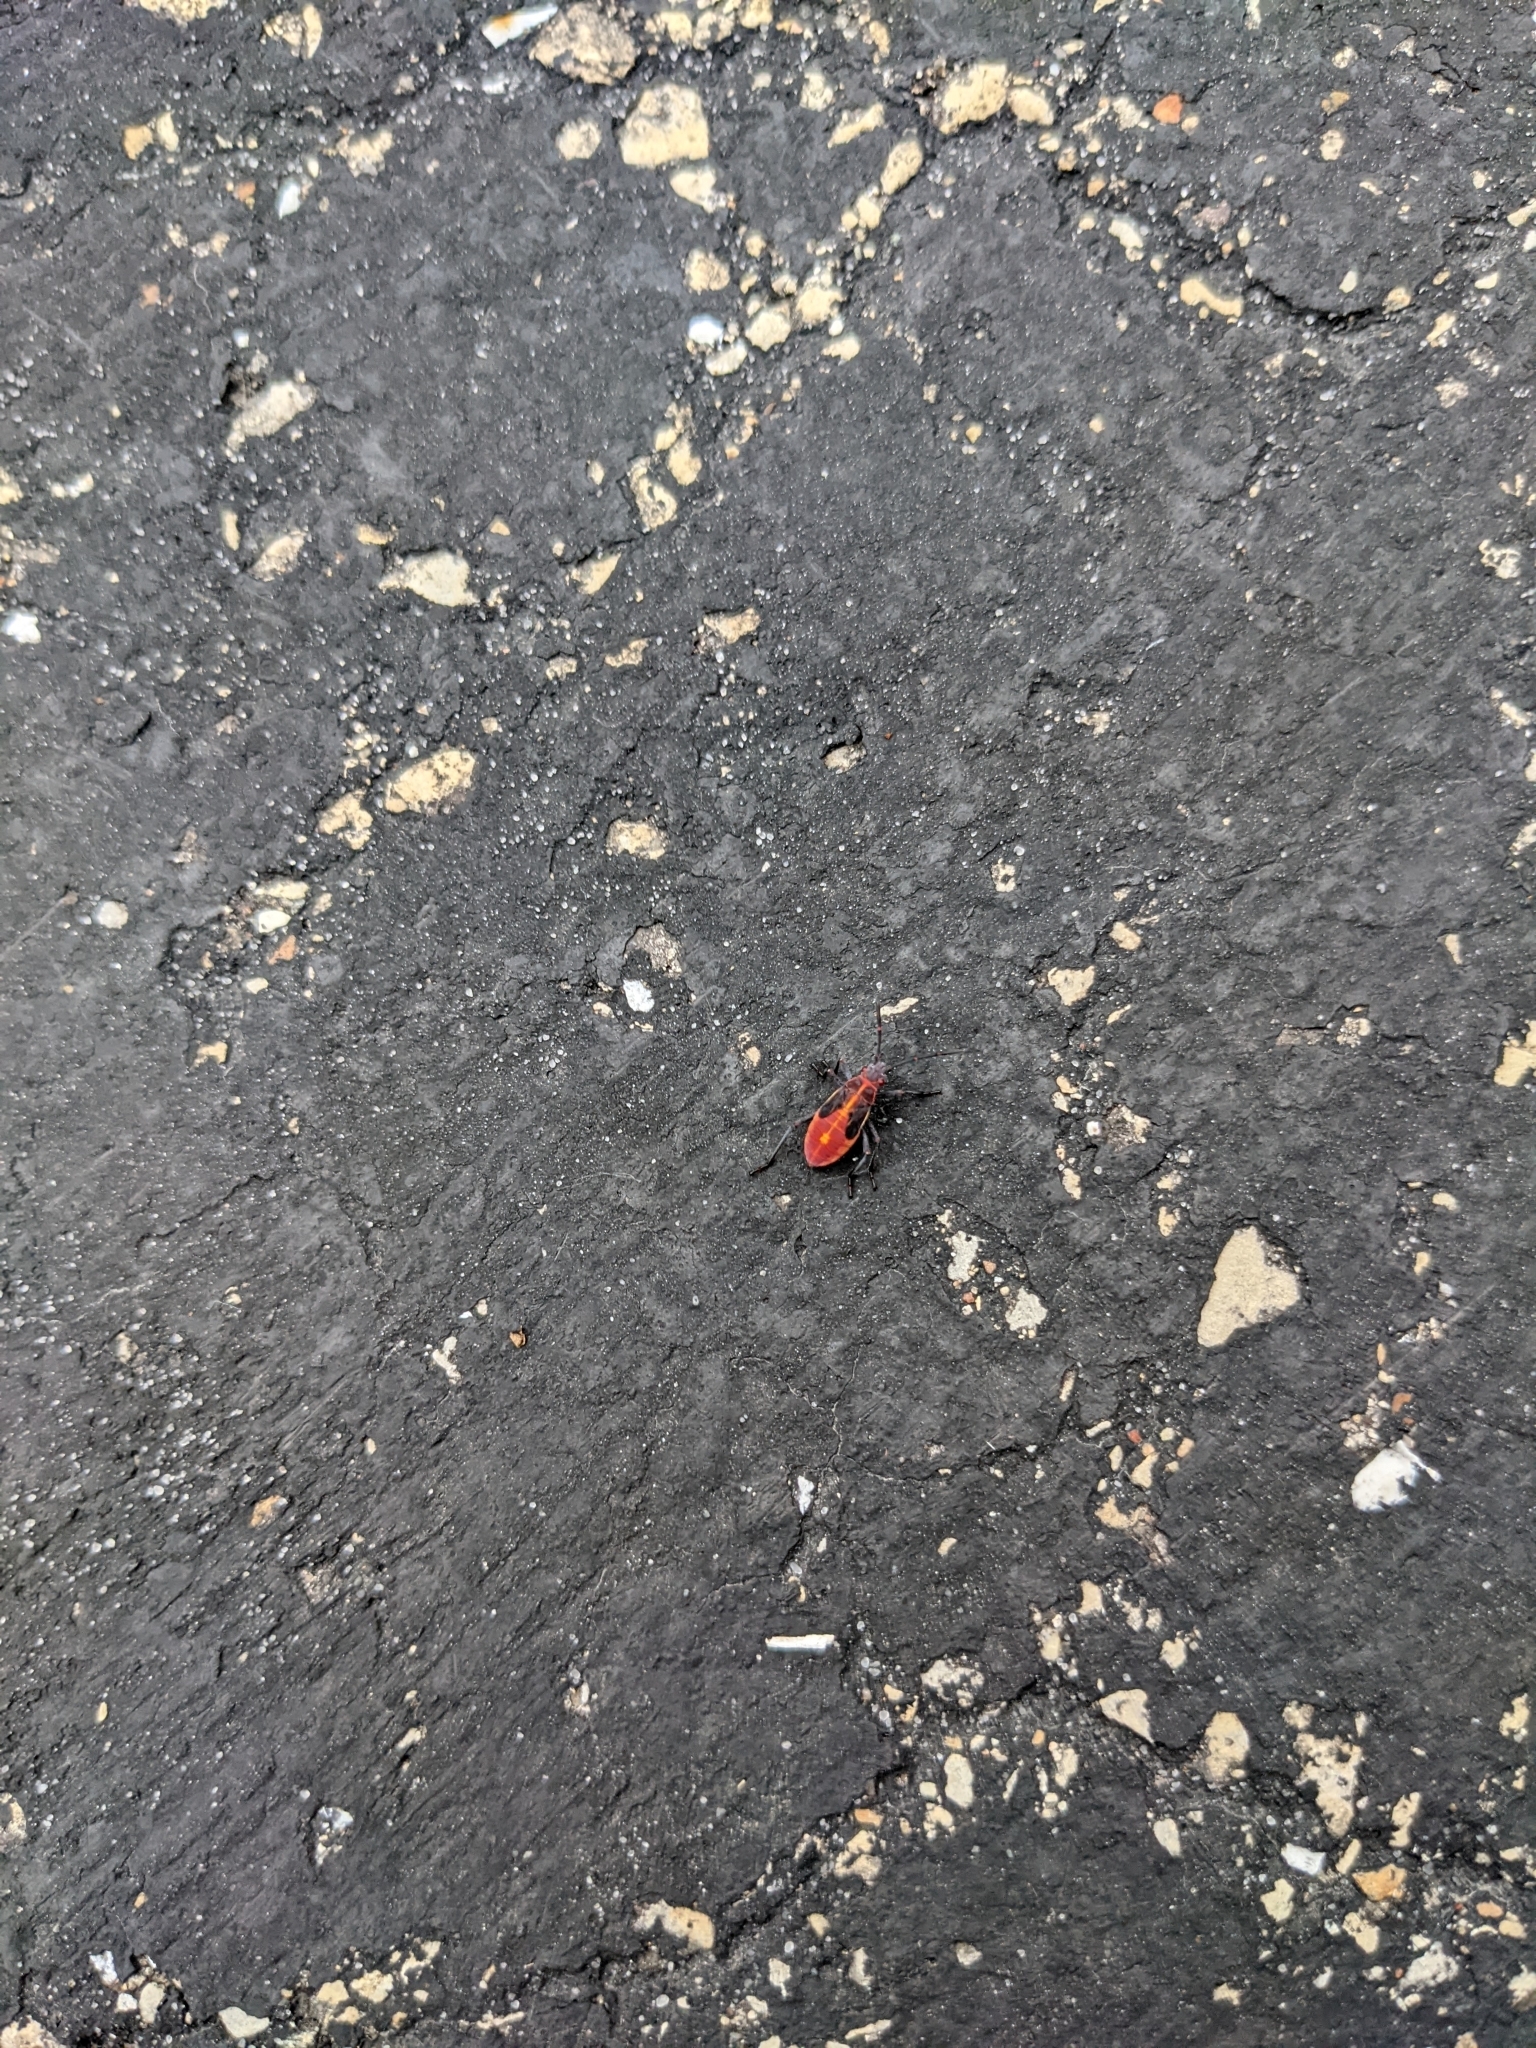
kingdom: Animalia
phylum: Arthropoda
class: Insecta
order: Hemiptera
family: Rhopalidae
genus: Boisea
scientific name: Boisea trivittata
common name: Boxelder bug
